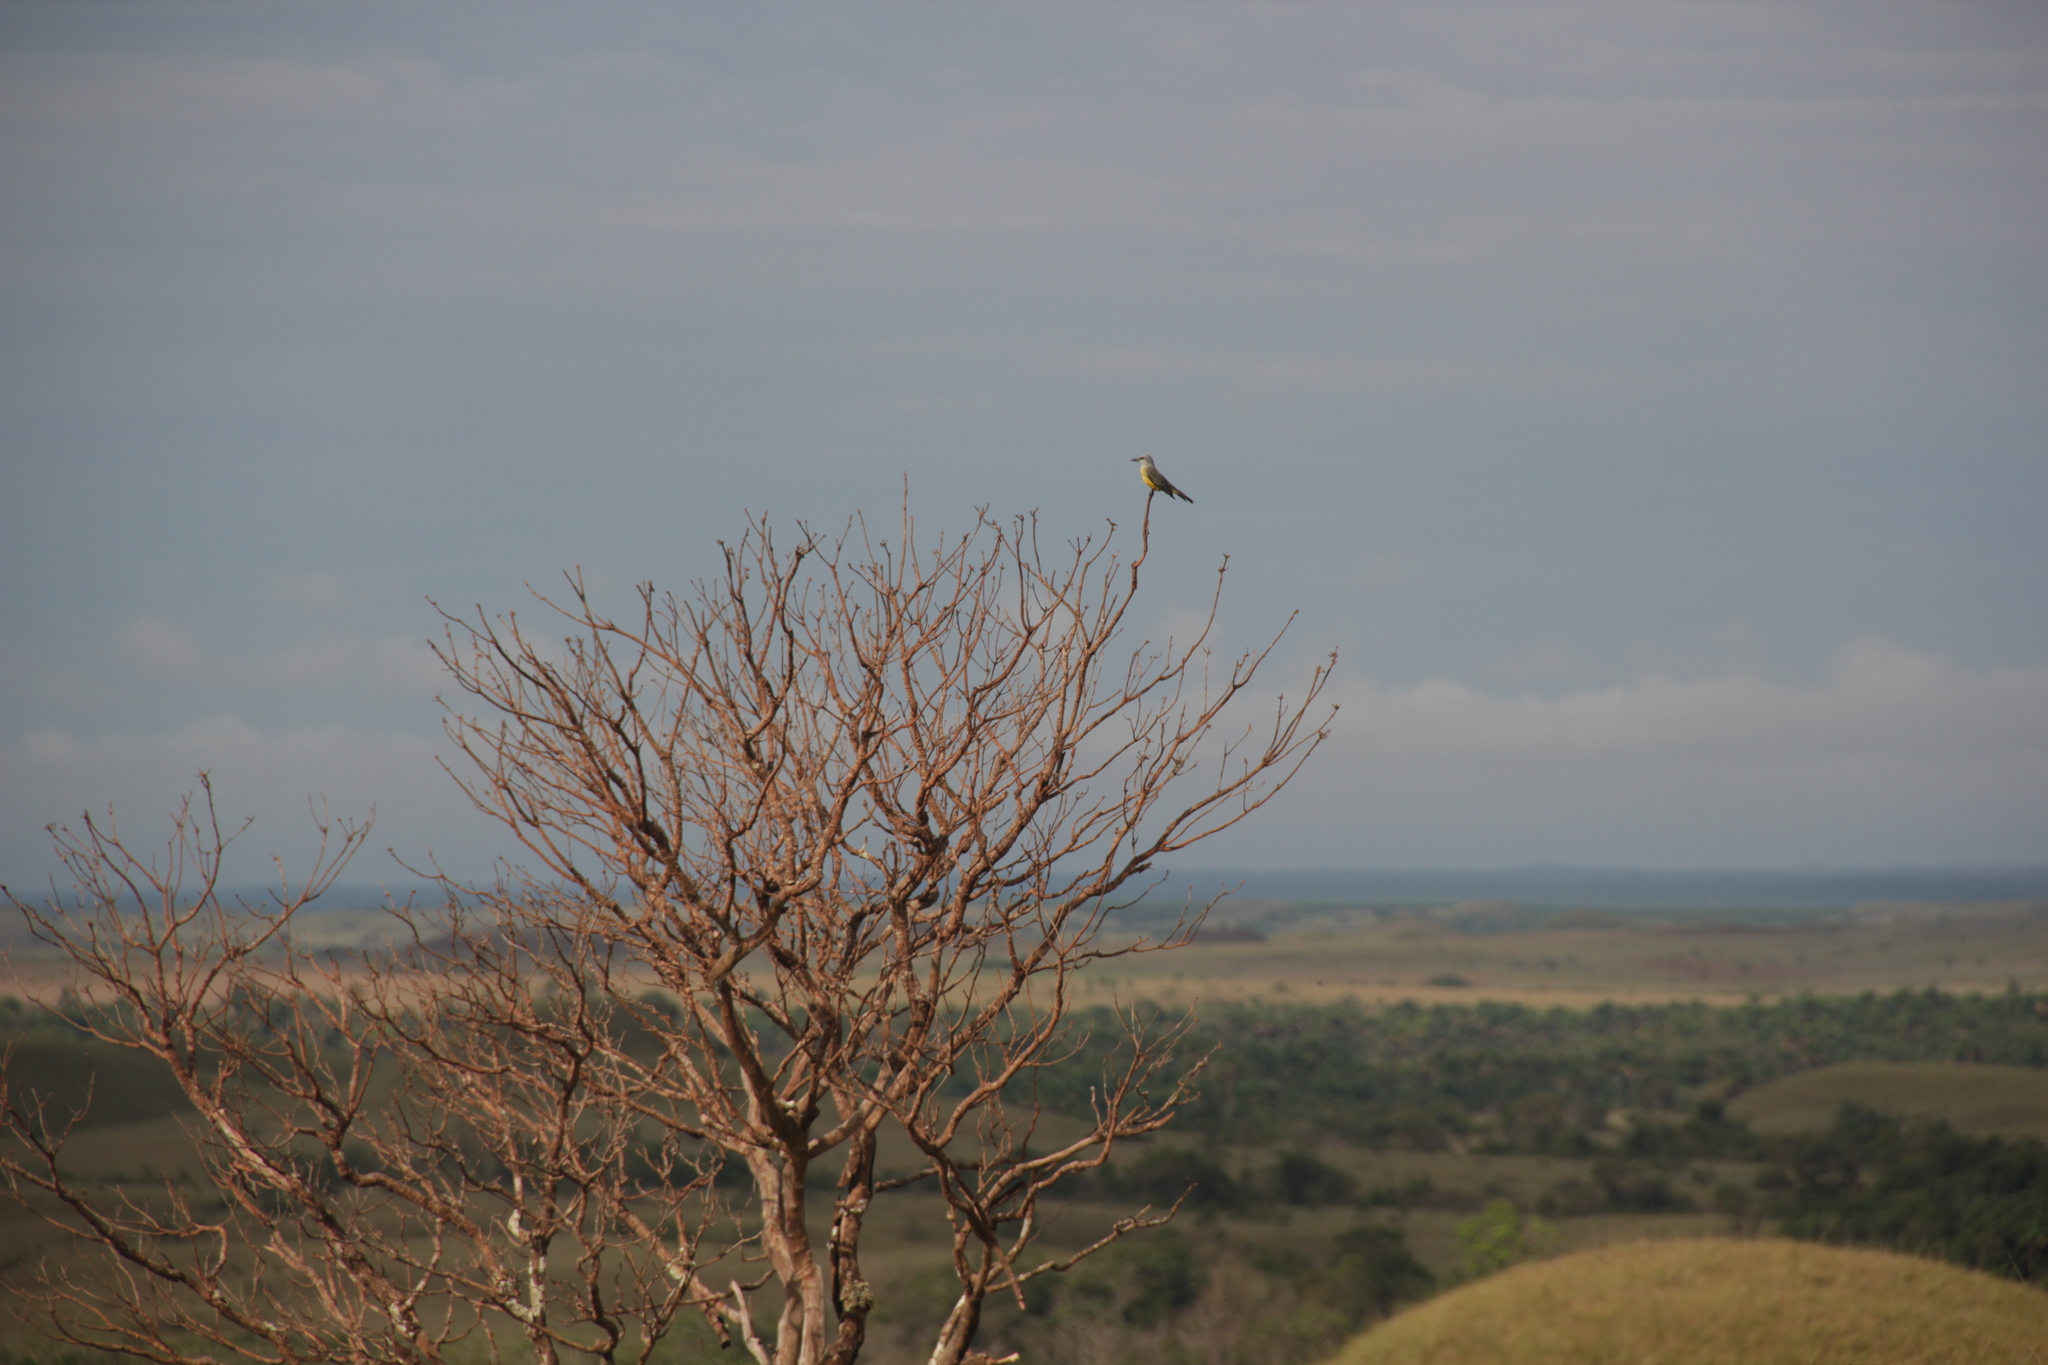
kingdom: Animalia
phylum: Chordata
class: Aves
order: Passeriformes
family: Tyrannidae
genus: Tyrannus
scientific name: Tyrannus melancholicus
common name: Tropical kingbird
